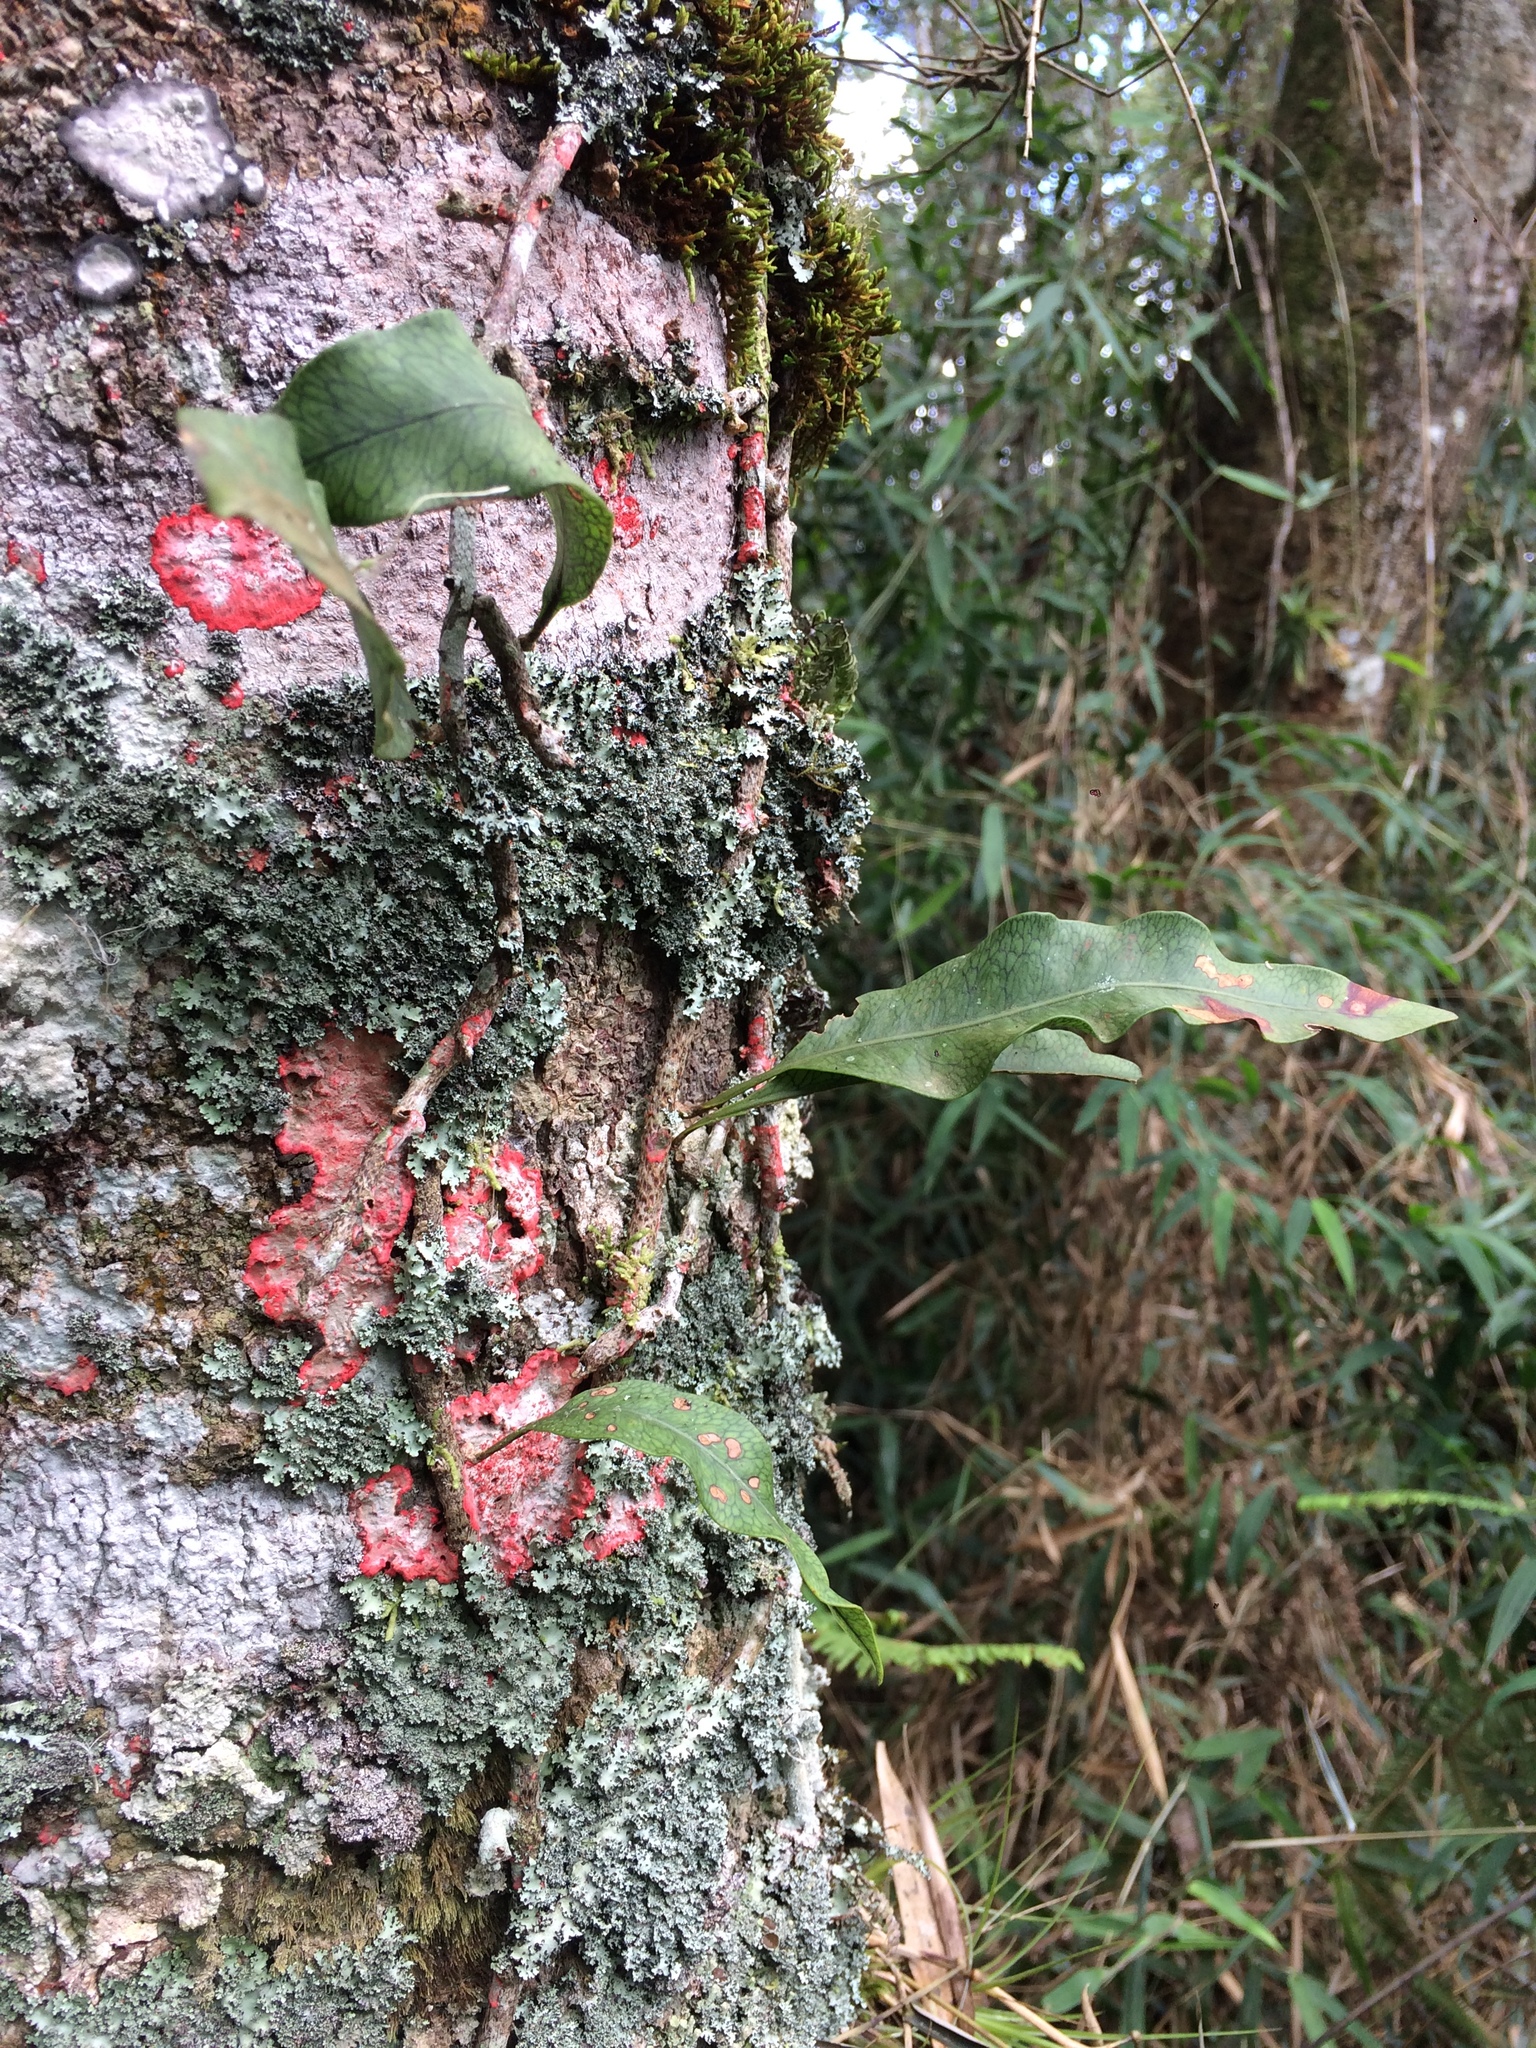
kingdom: Plantae
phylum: Tracheophyta
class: Polypodiopsida
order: Polypodiales
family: Polypodiaceae
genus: Microgramma
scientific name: Microgramma squamulosa
